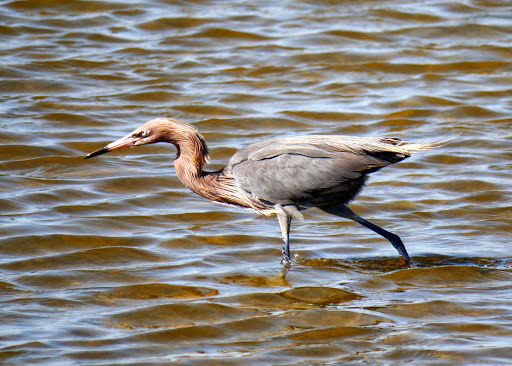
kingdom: Animalia
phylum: Chordata
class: Aves
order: Pelecaniformes
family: Ardeidae
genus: Egretta
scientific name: Egretta rufescens
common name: Reddish egret
